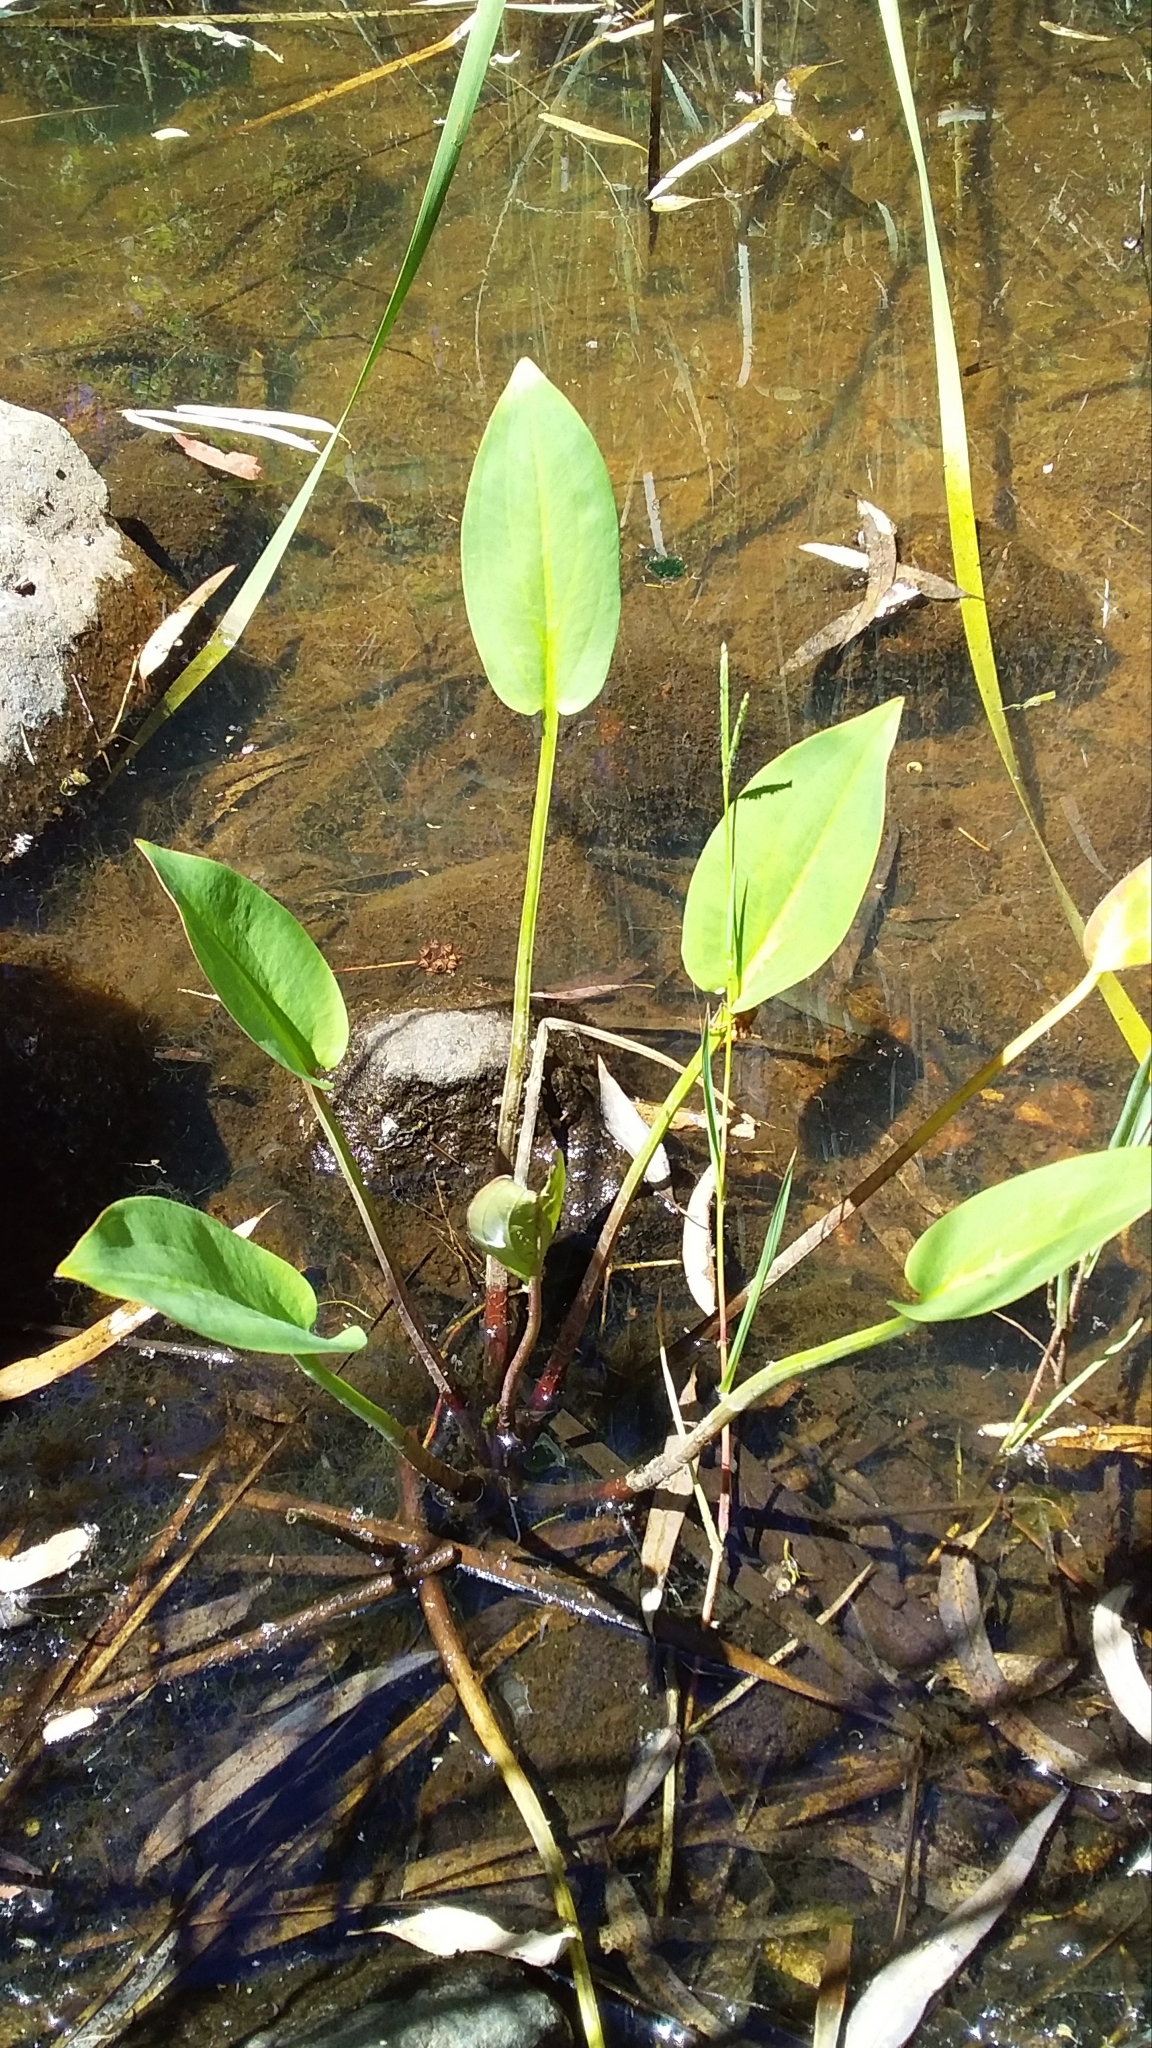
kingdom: Plantae
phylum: Tracheophyta
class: Liliopsida
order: Alismatales
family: Alismataceae
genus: Alisma
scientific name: Alisma plantago-aquatica
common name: Water-plantain
